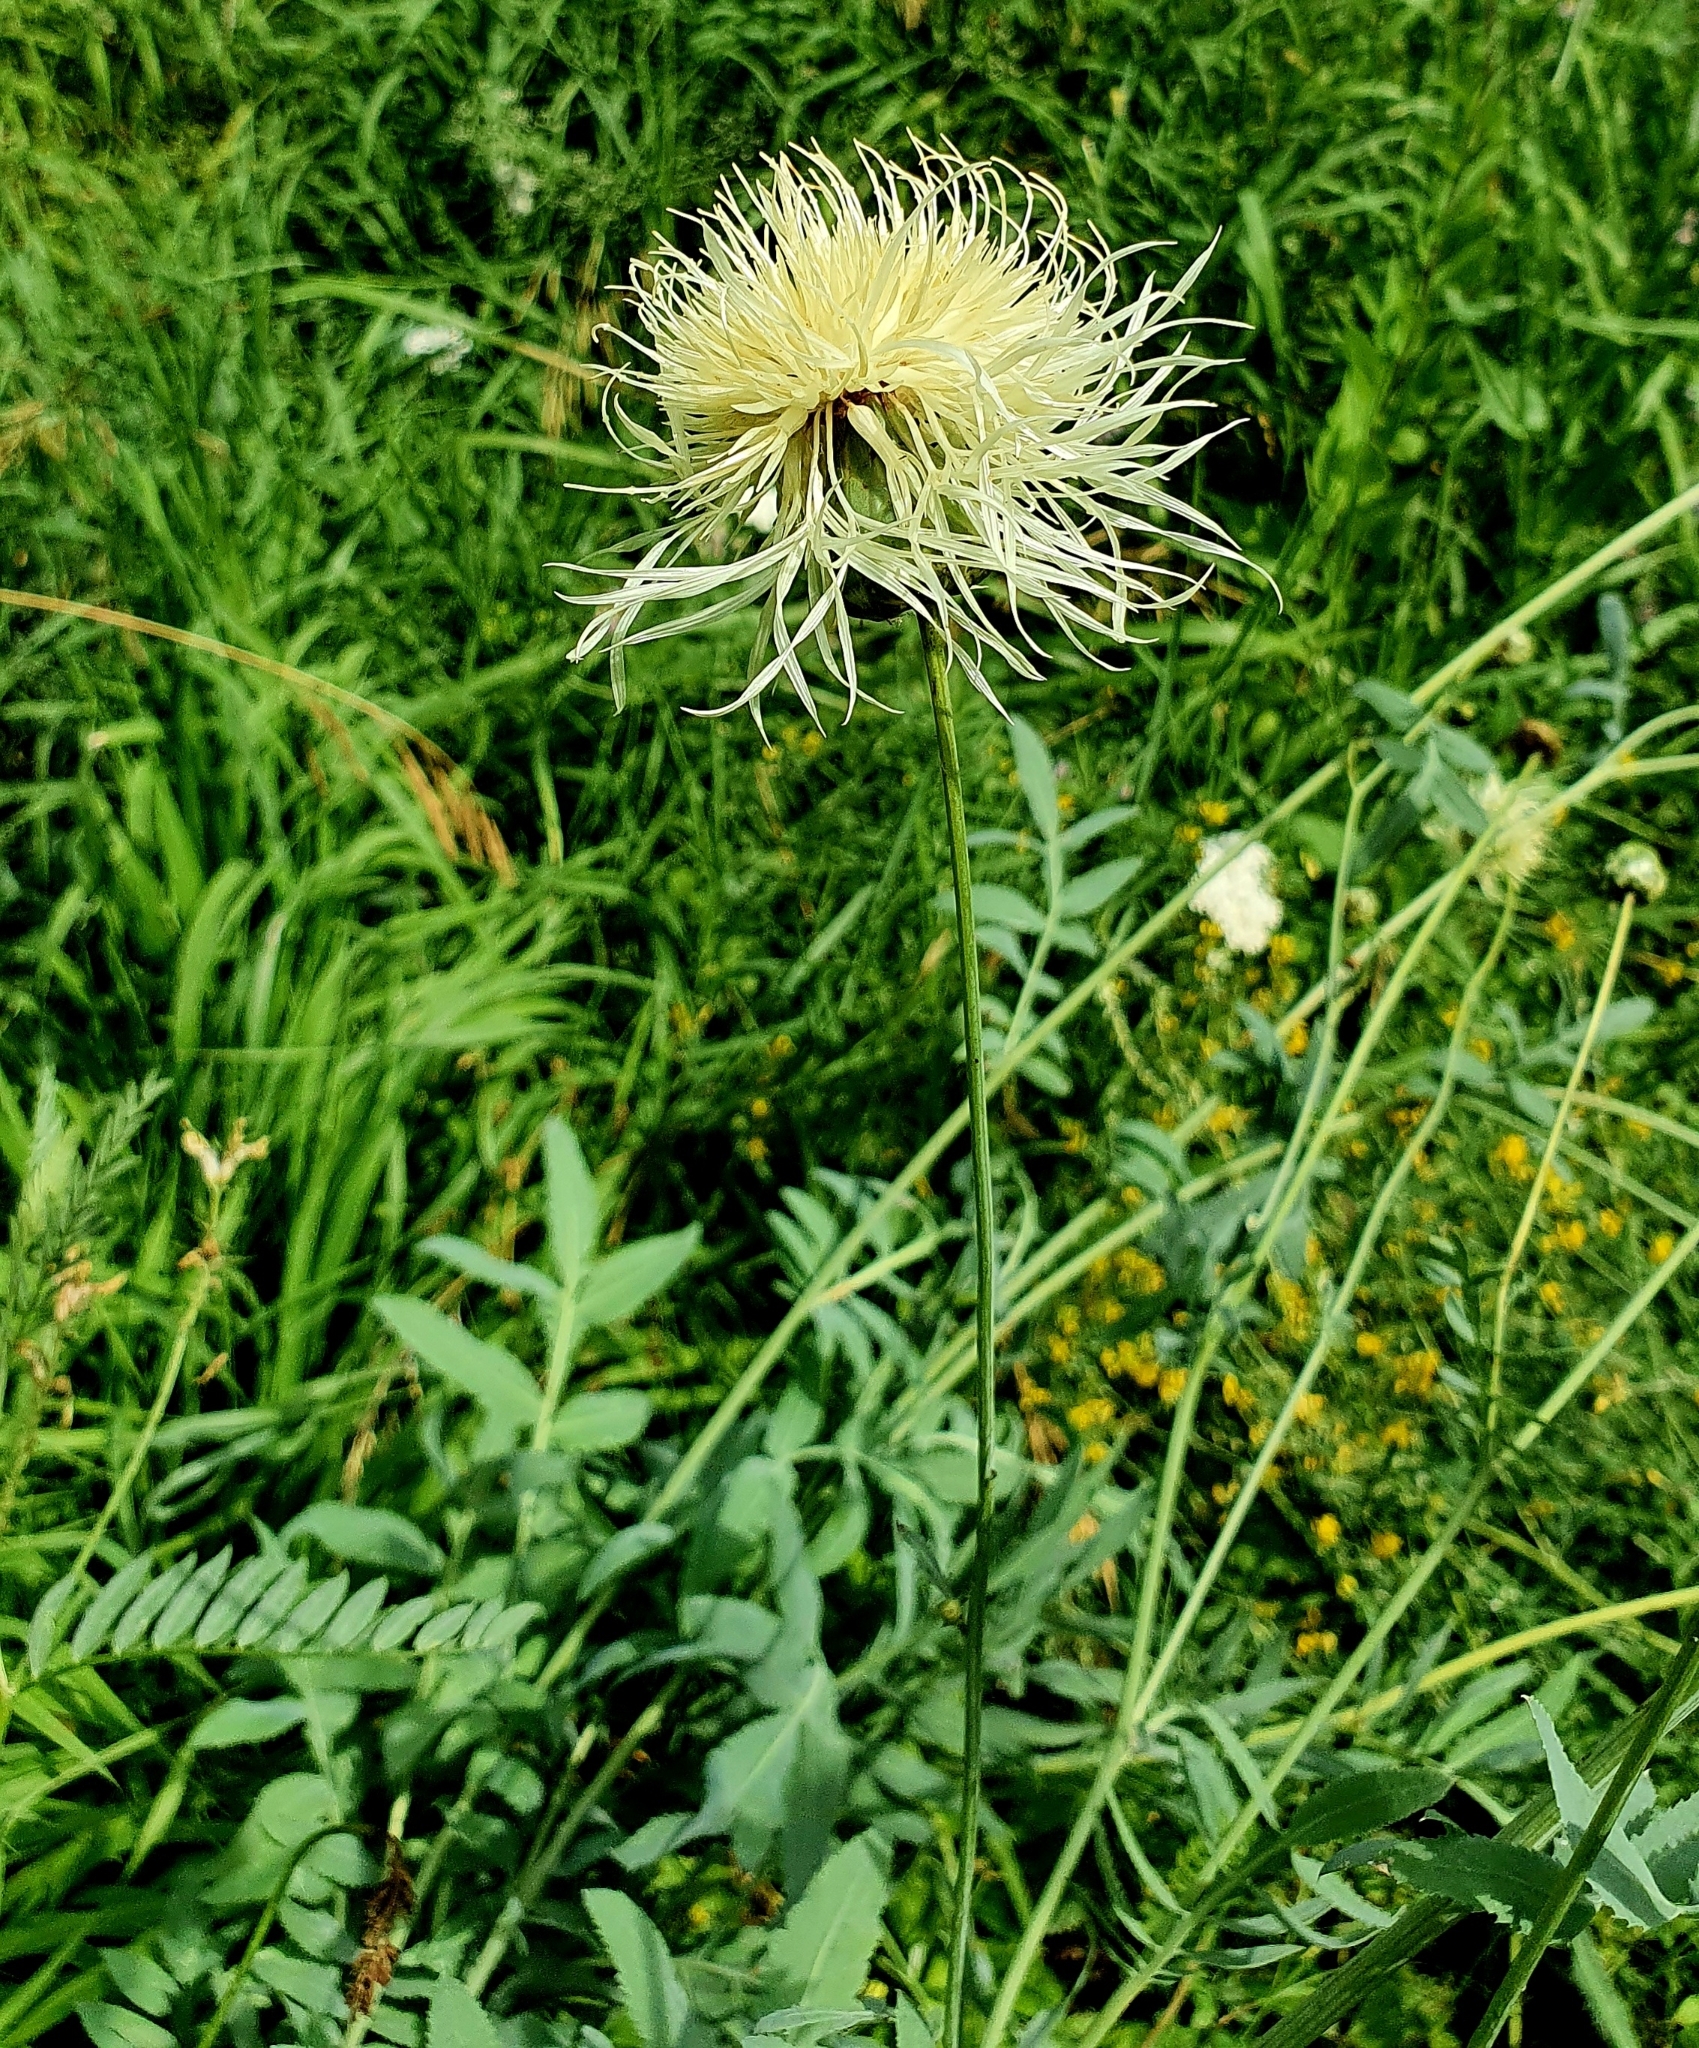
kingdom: Plantae
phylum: Tracheophyta
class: Magnoliopsida
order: Asterales
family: Asteraceae
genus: Rhaponticoides
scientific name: Rhaponticoides ruthenica
